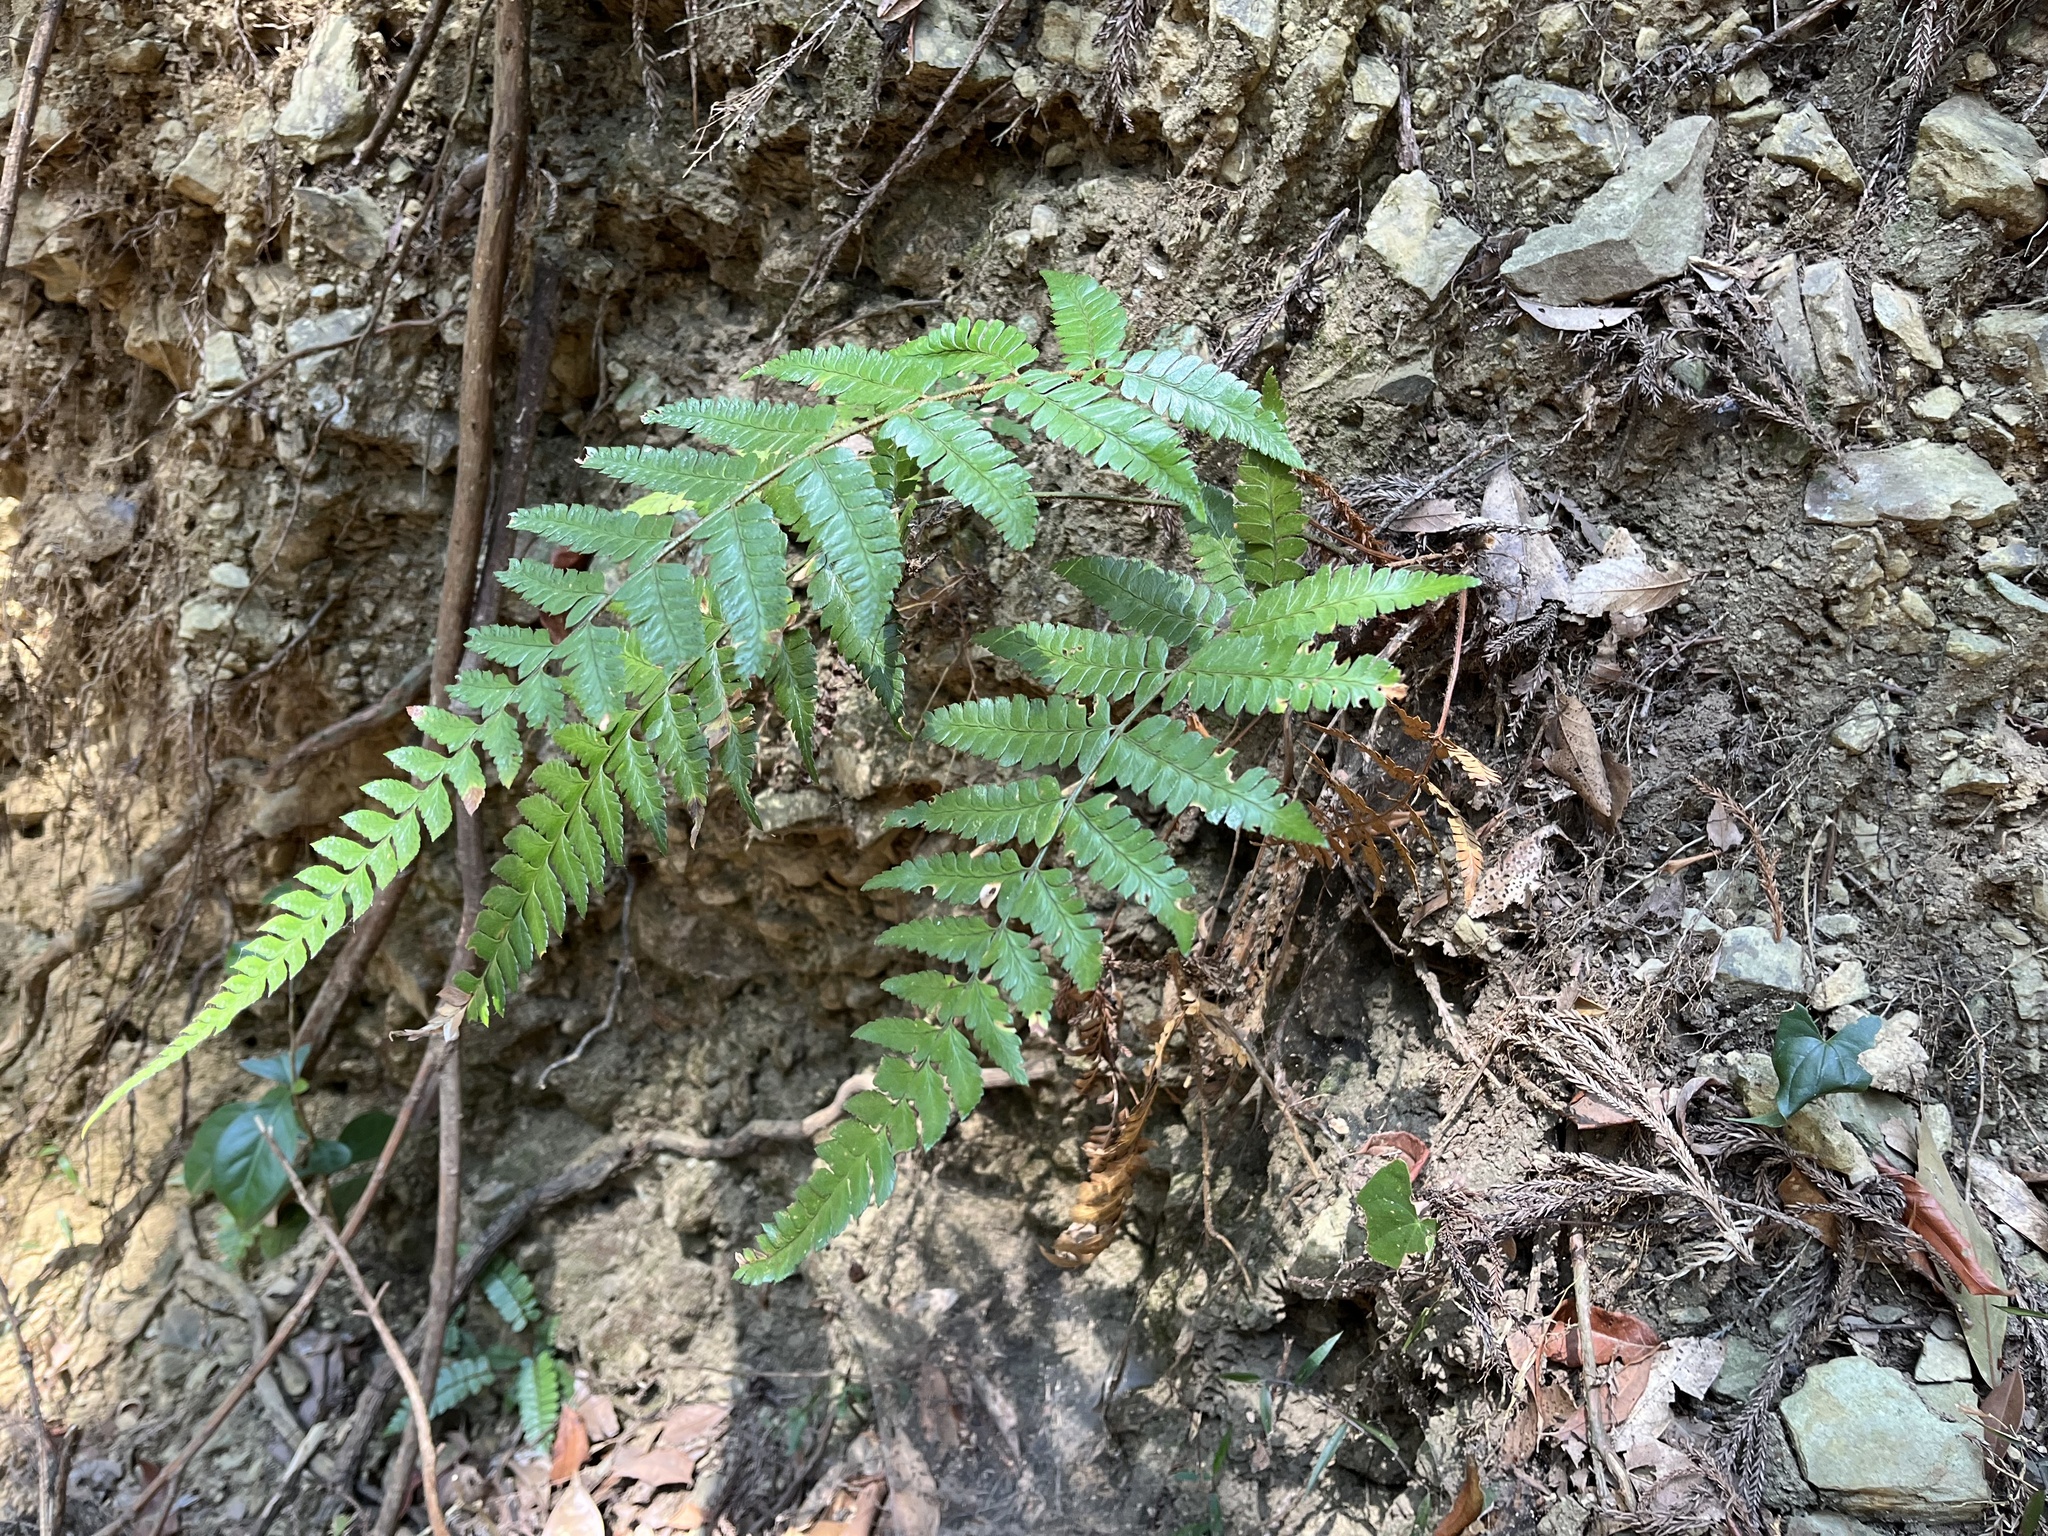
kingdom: Plantae
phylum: Tracheophyta
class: Polypodiopsida
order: Polypodiales
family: Dryopteridaceae
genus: Polystichum
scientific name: Polystichum biaristatum
